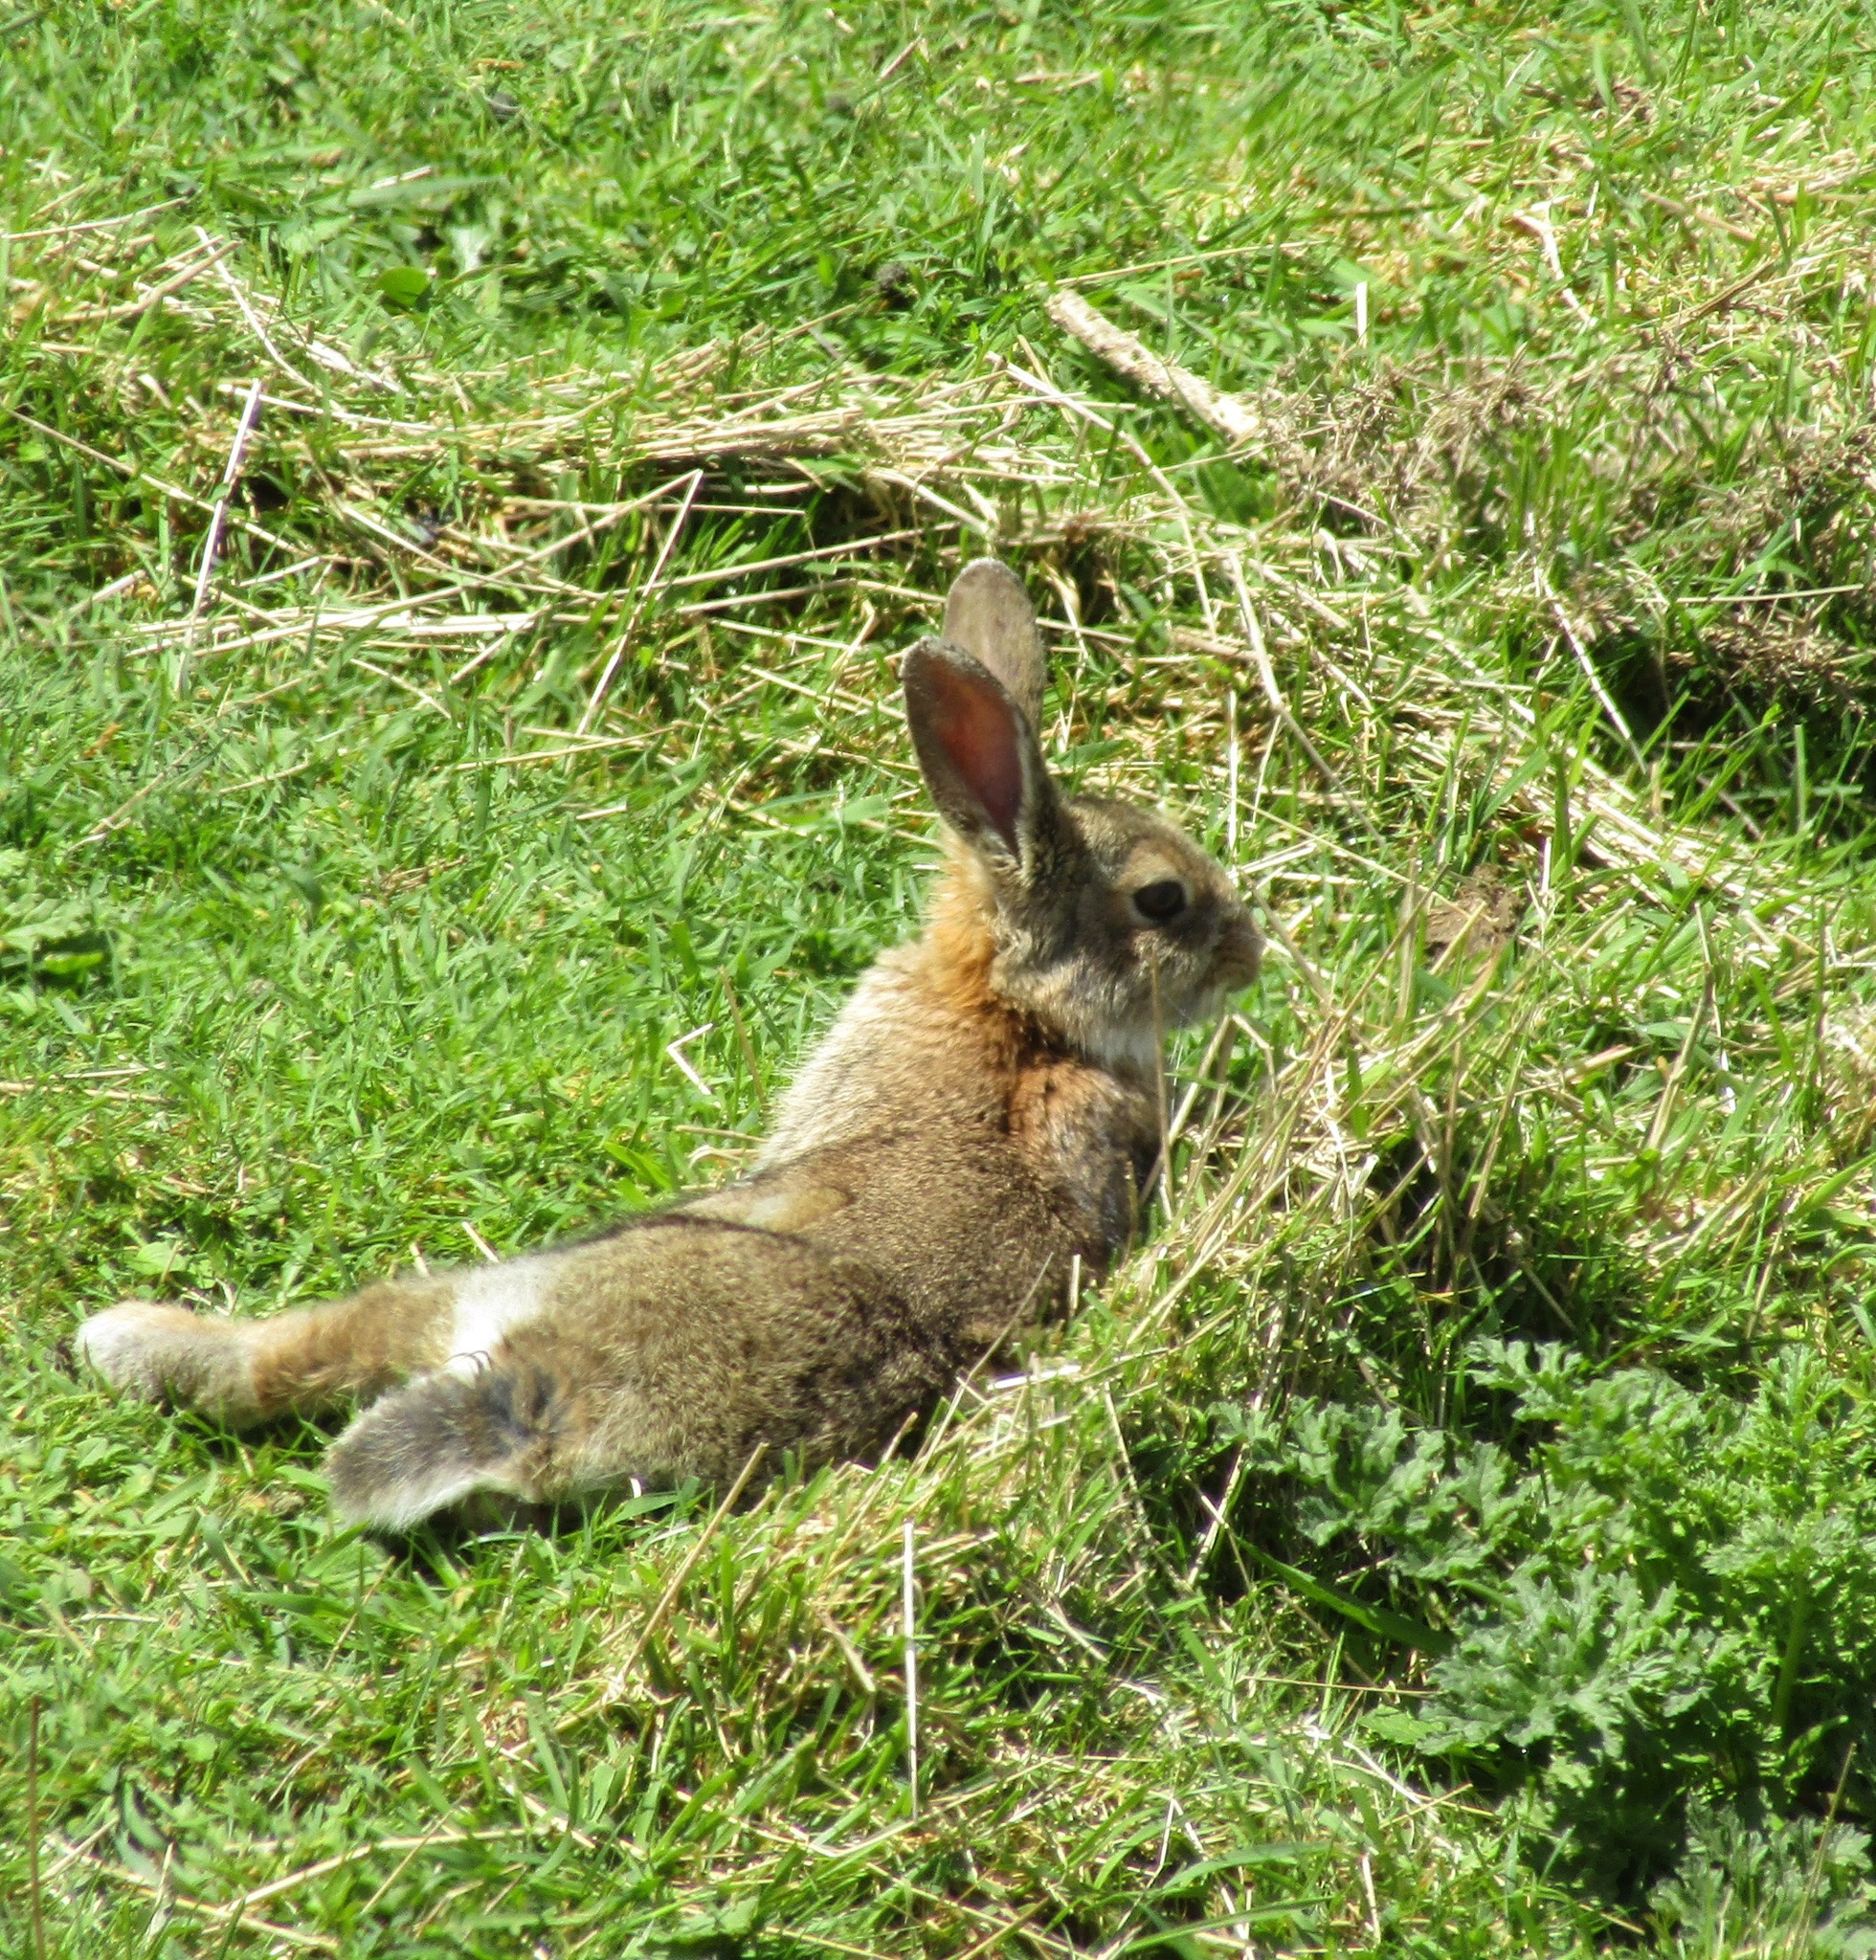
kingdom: Animalia
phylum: Chordata
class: Mammalia
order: Lagomorpha
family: Leporidae
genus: Oryctolagus
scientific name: Oryctolagus cuniculus
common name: European rabbit
